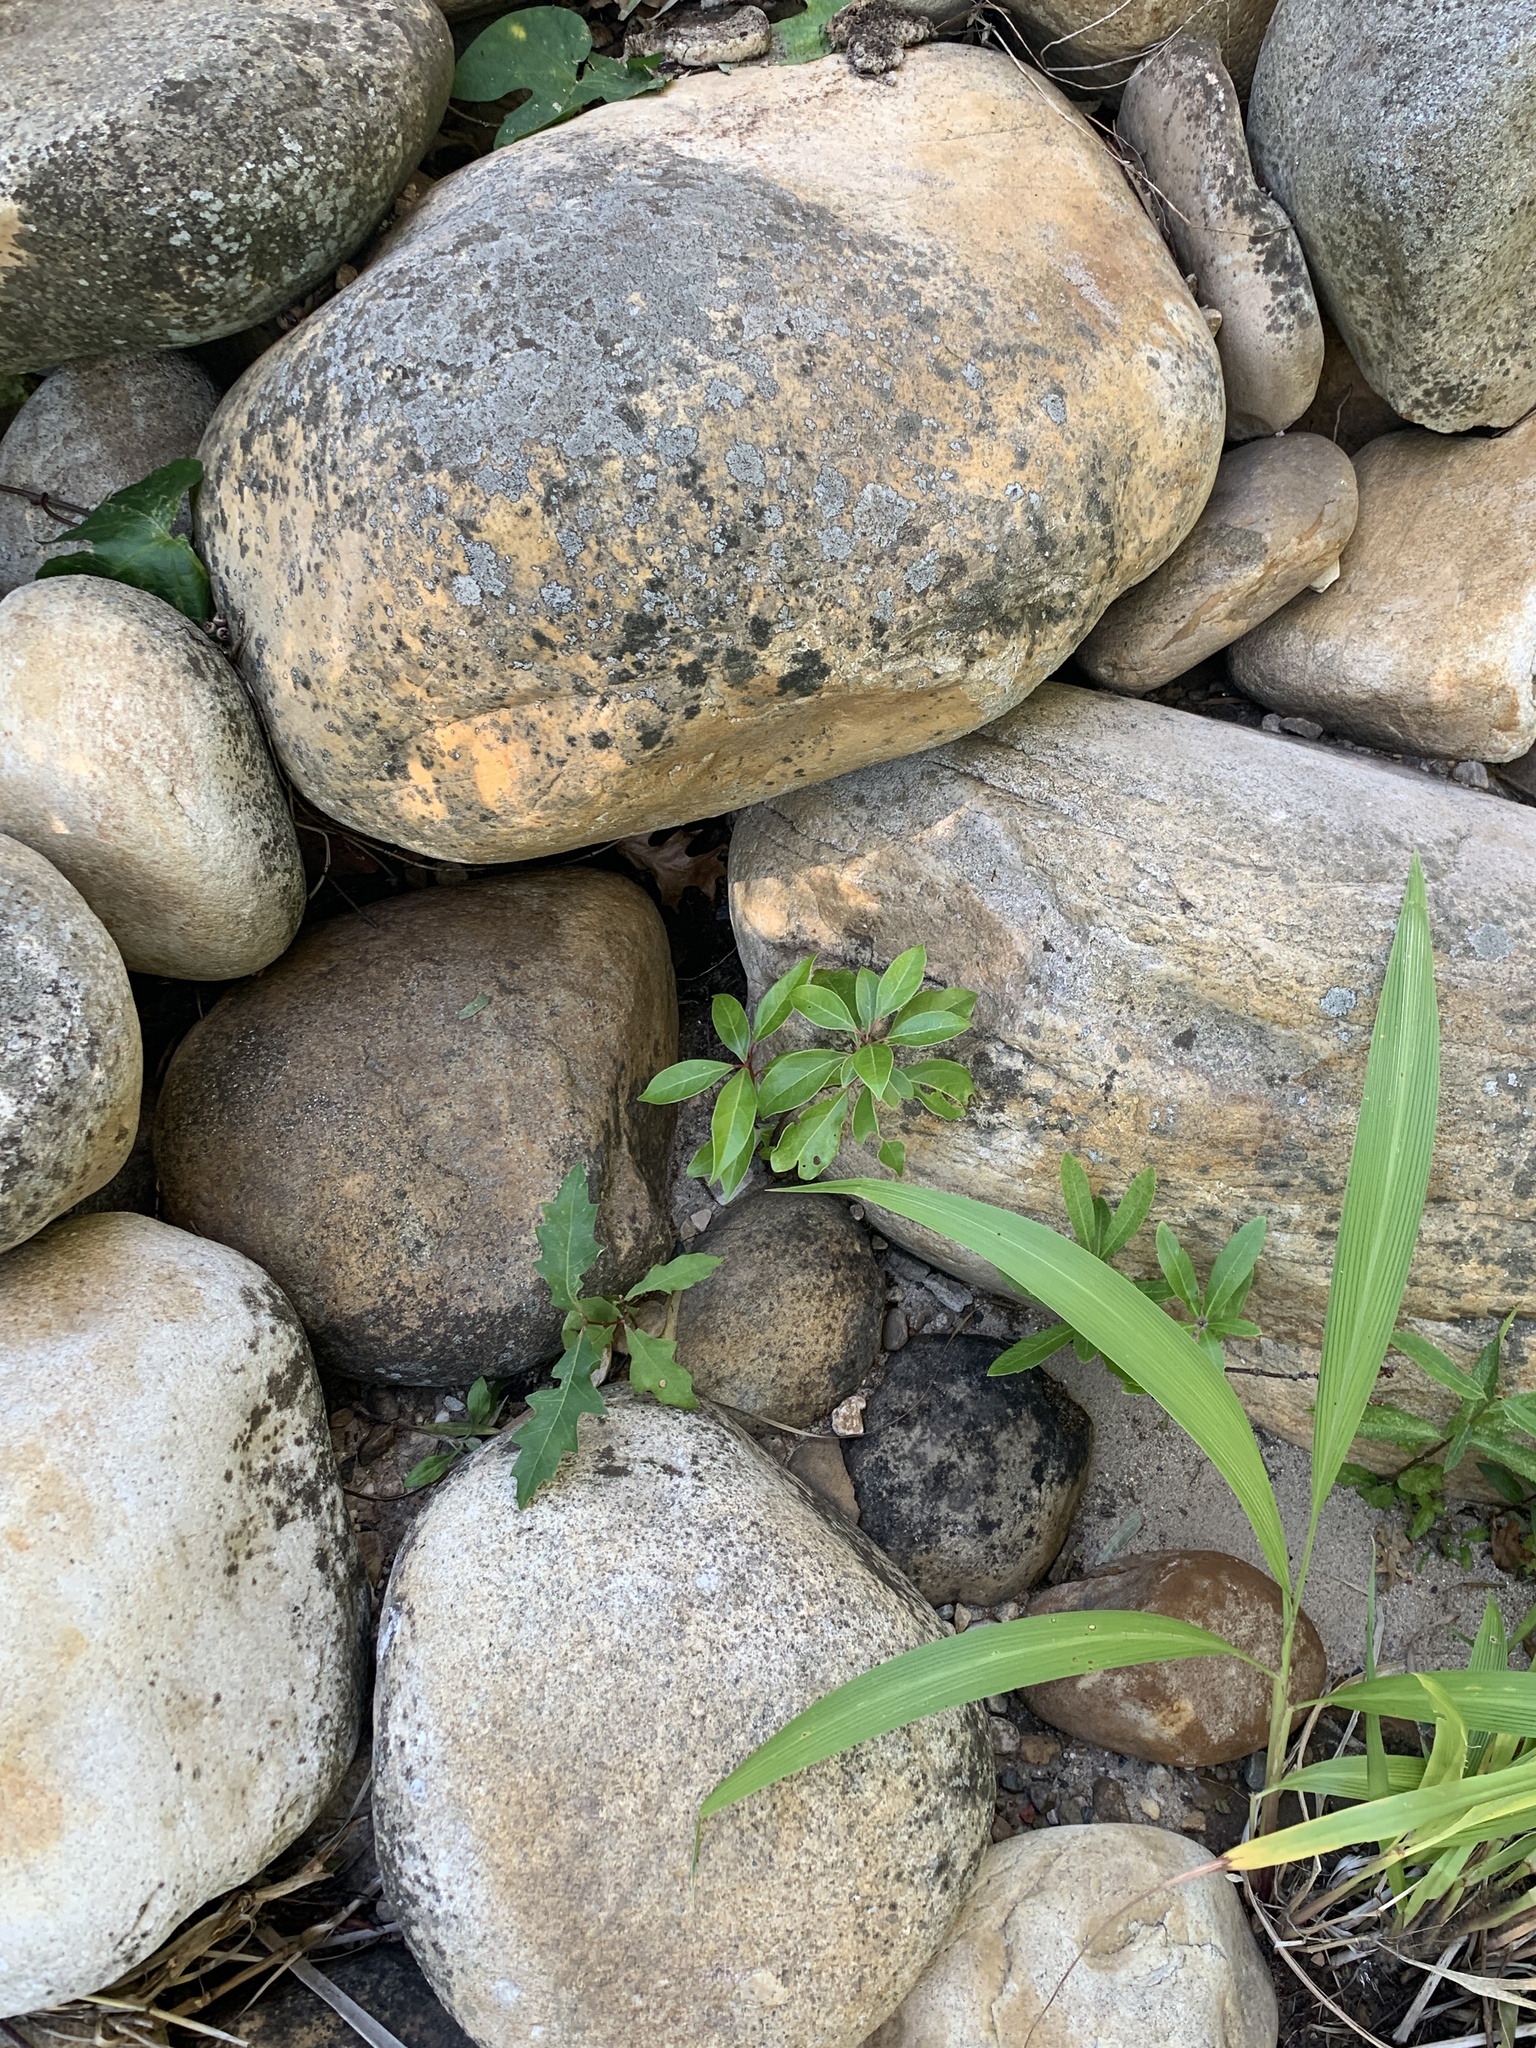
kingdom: Plantae
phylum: Tracheophyta
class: Magnoliopsida
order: Fagales
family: Fagaceae
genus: Quercus
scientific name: Quercus palustris
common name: Pin oak
